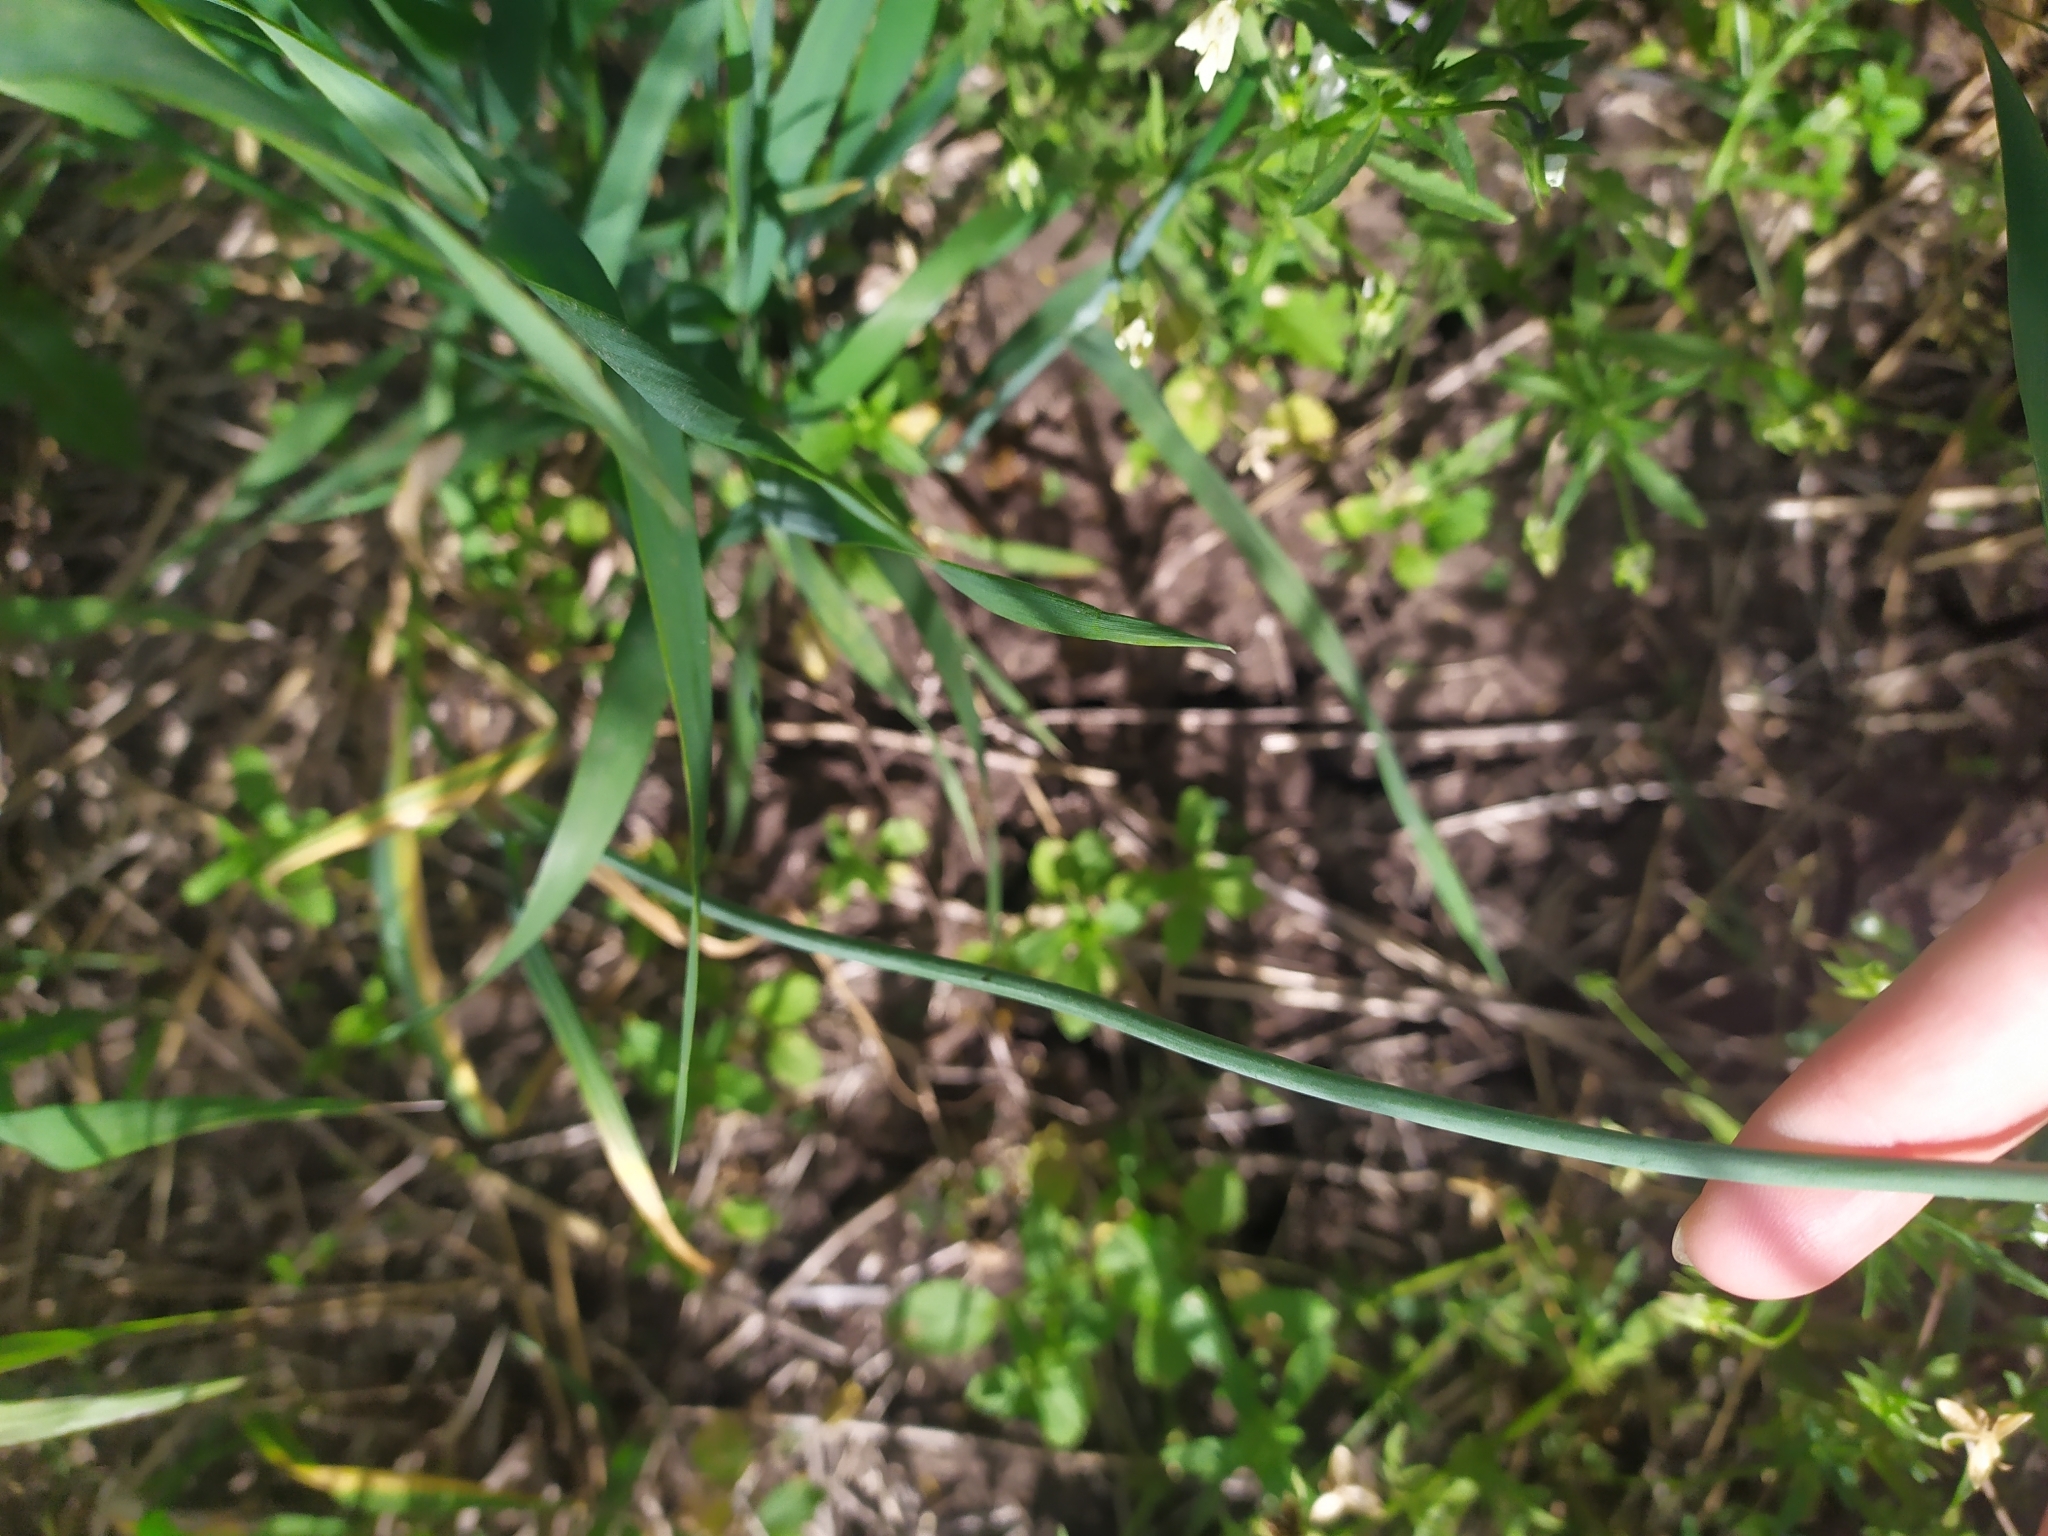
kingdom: Plantae
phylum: Tracheophyta
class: Liliopsida
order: Asparagales
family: Amaryllidaceae
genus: Allium
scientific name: Allium rotundum
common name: Sand leek
